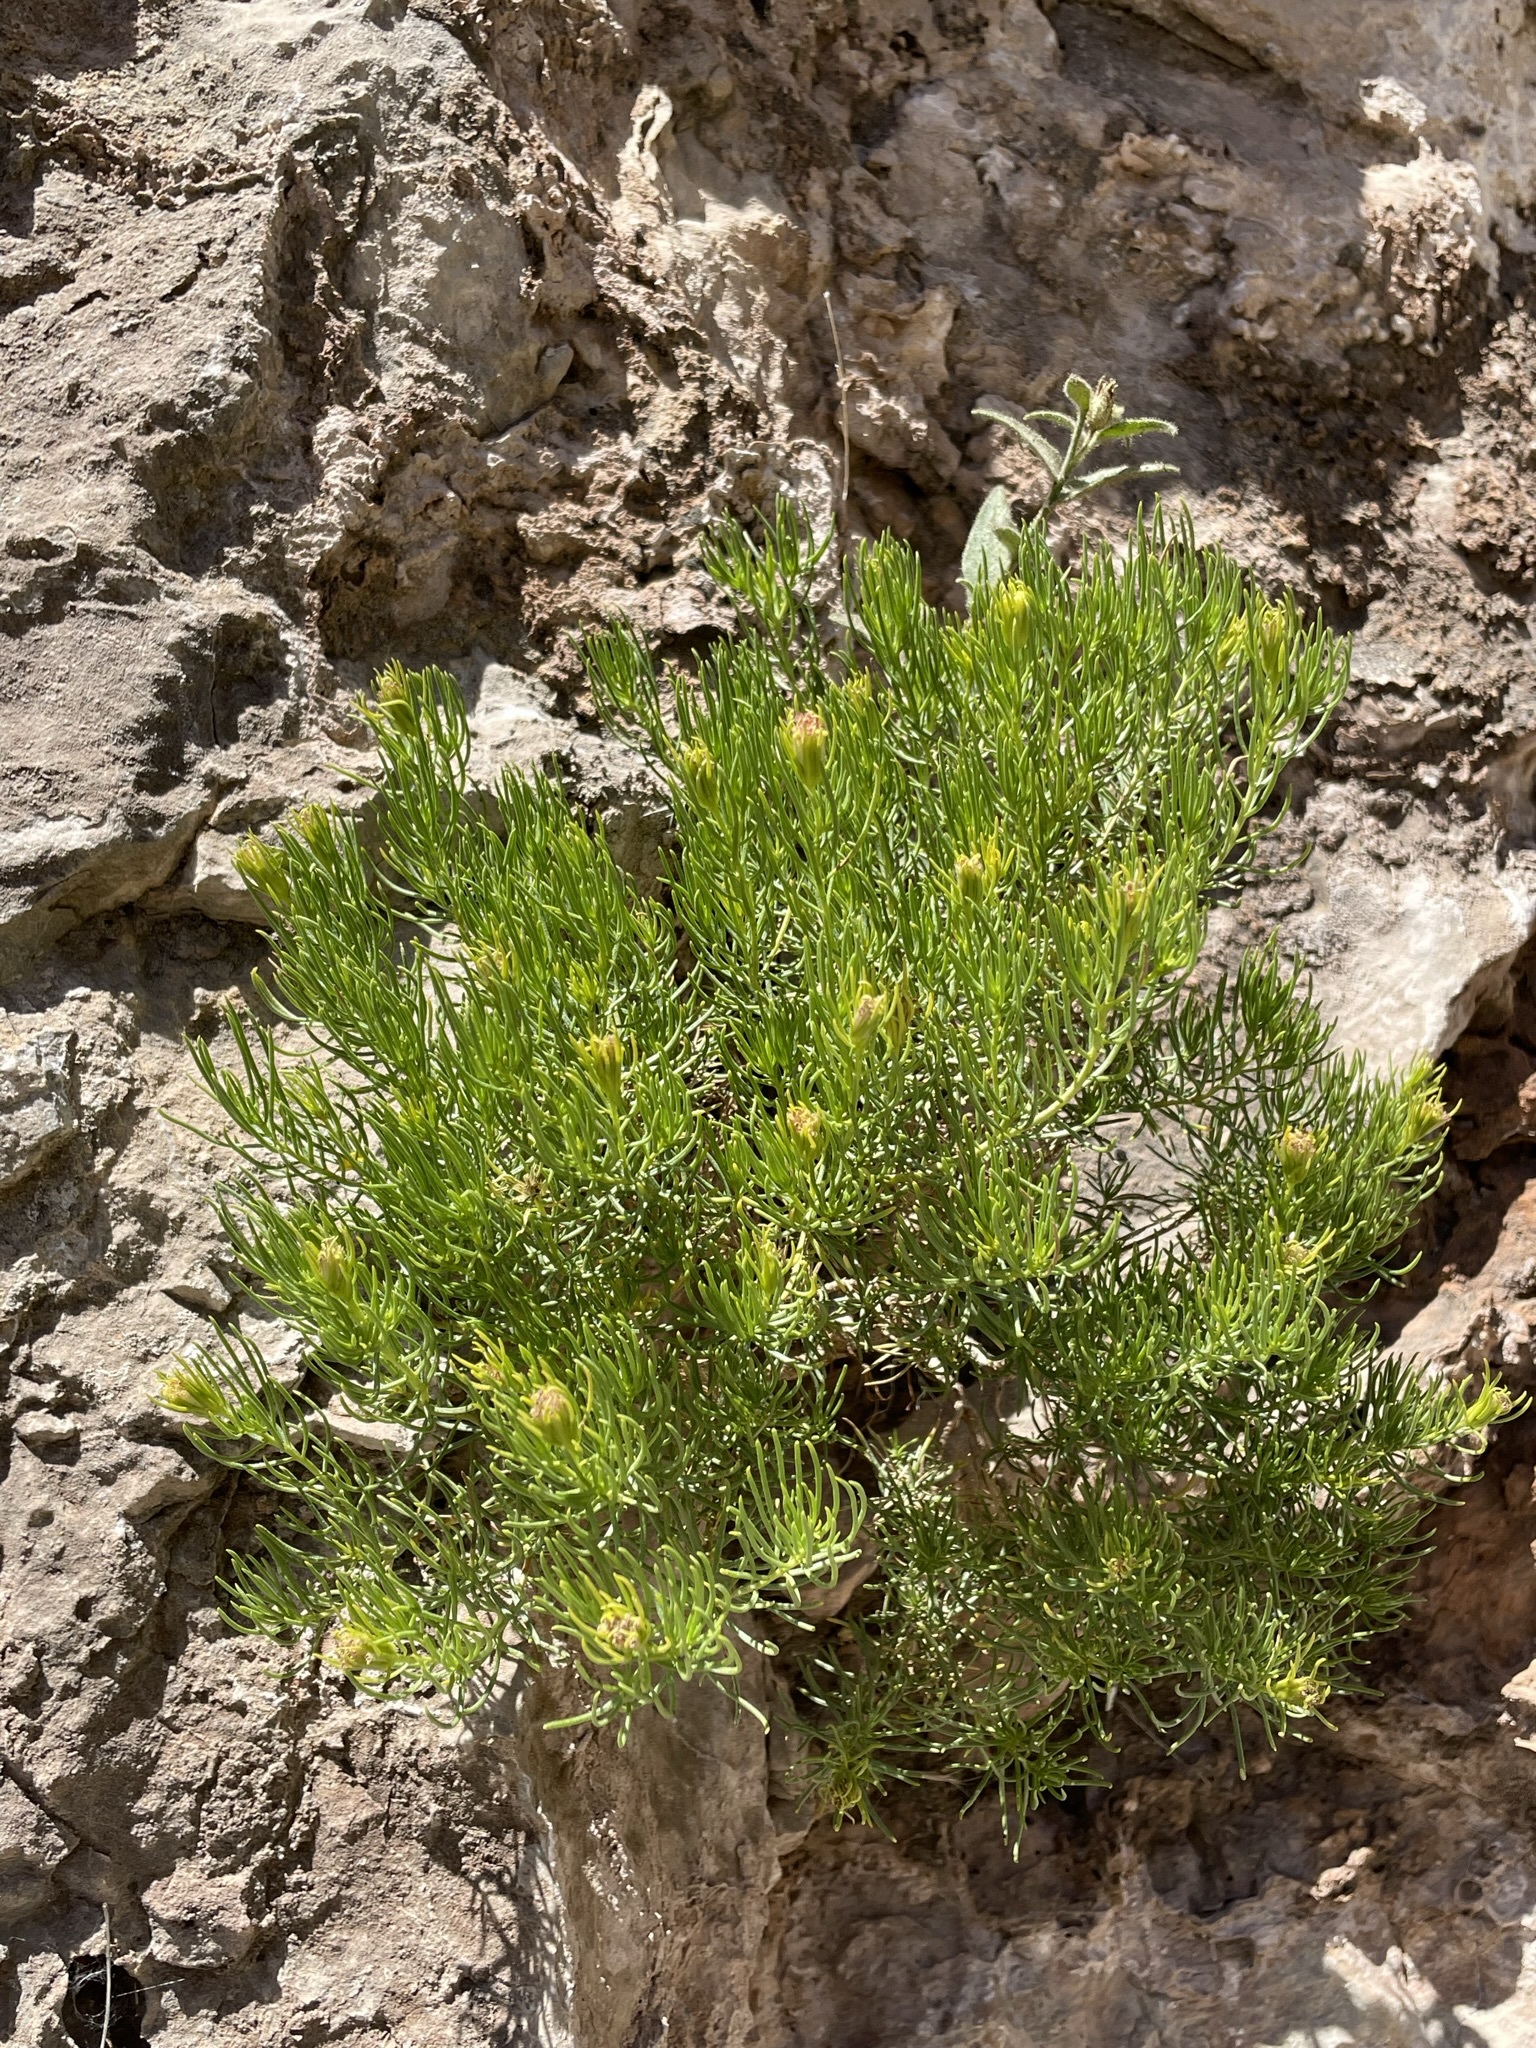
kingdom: Plantae
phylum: Tracheophyta
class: Magnoliopsida
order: Asterales
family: Asteraceae
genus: Peucephyllum
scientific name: Peucephyllum schottii
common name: Pygmy-cedar
